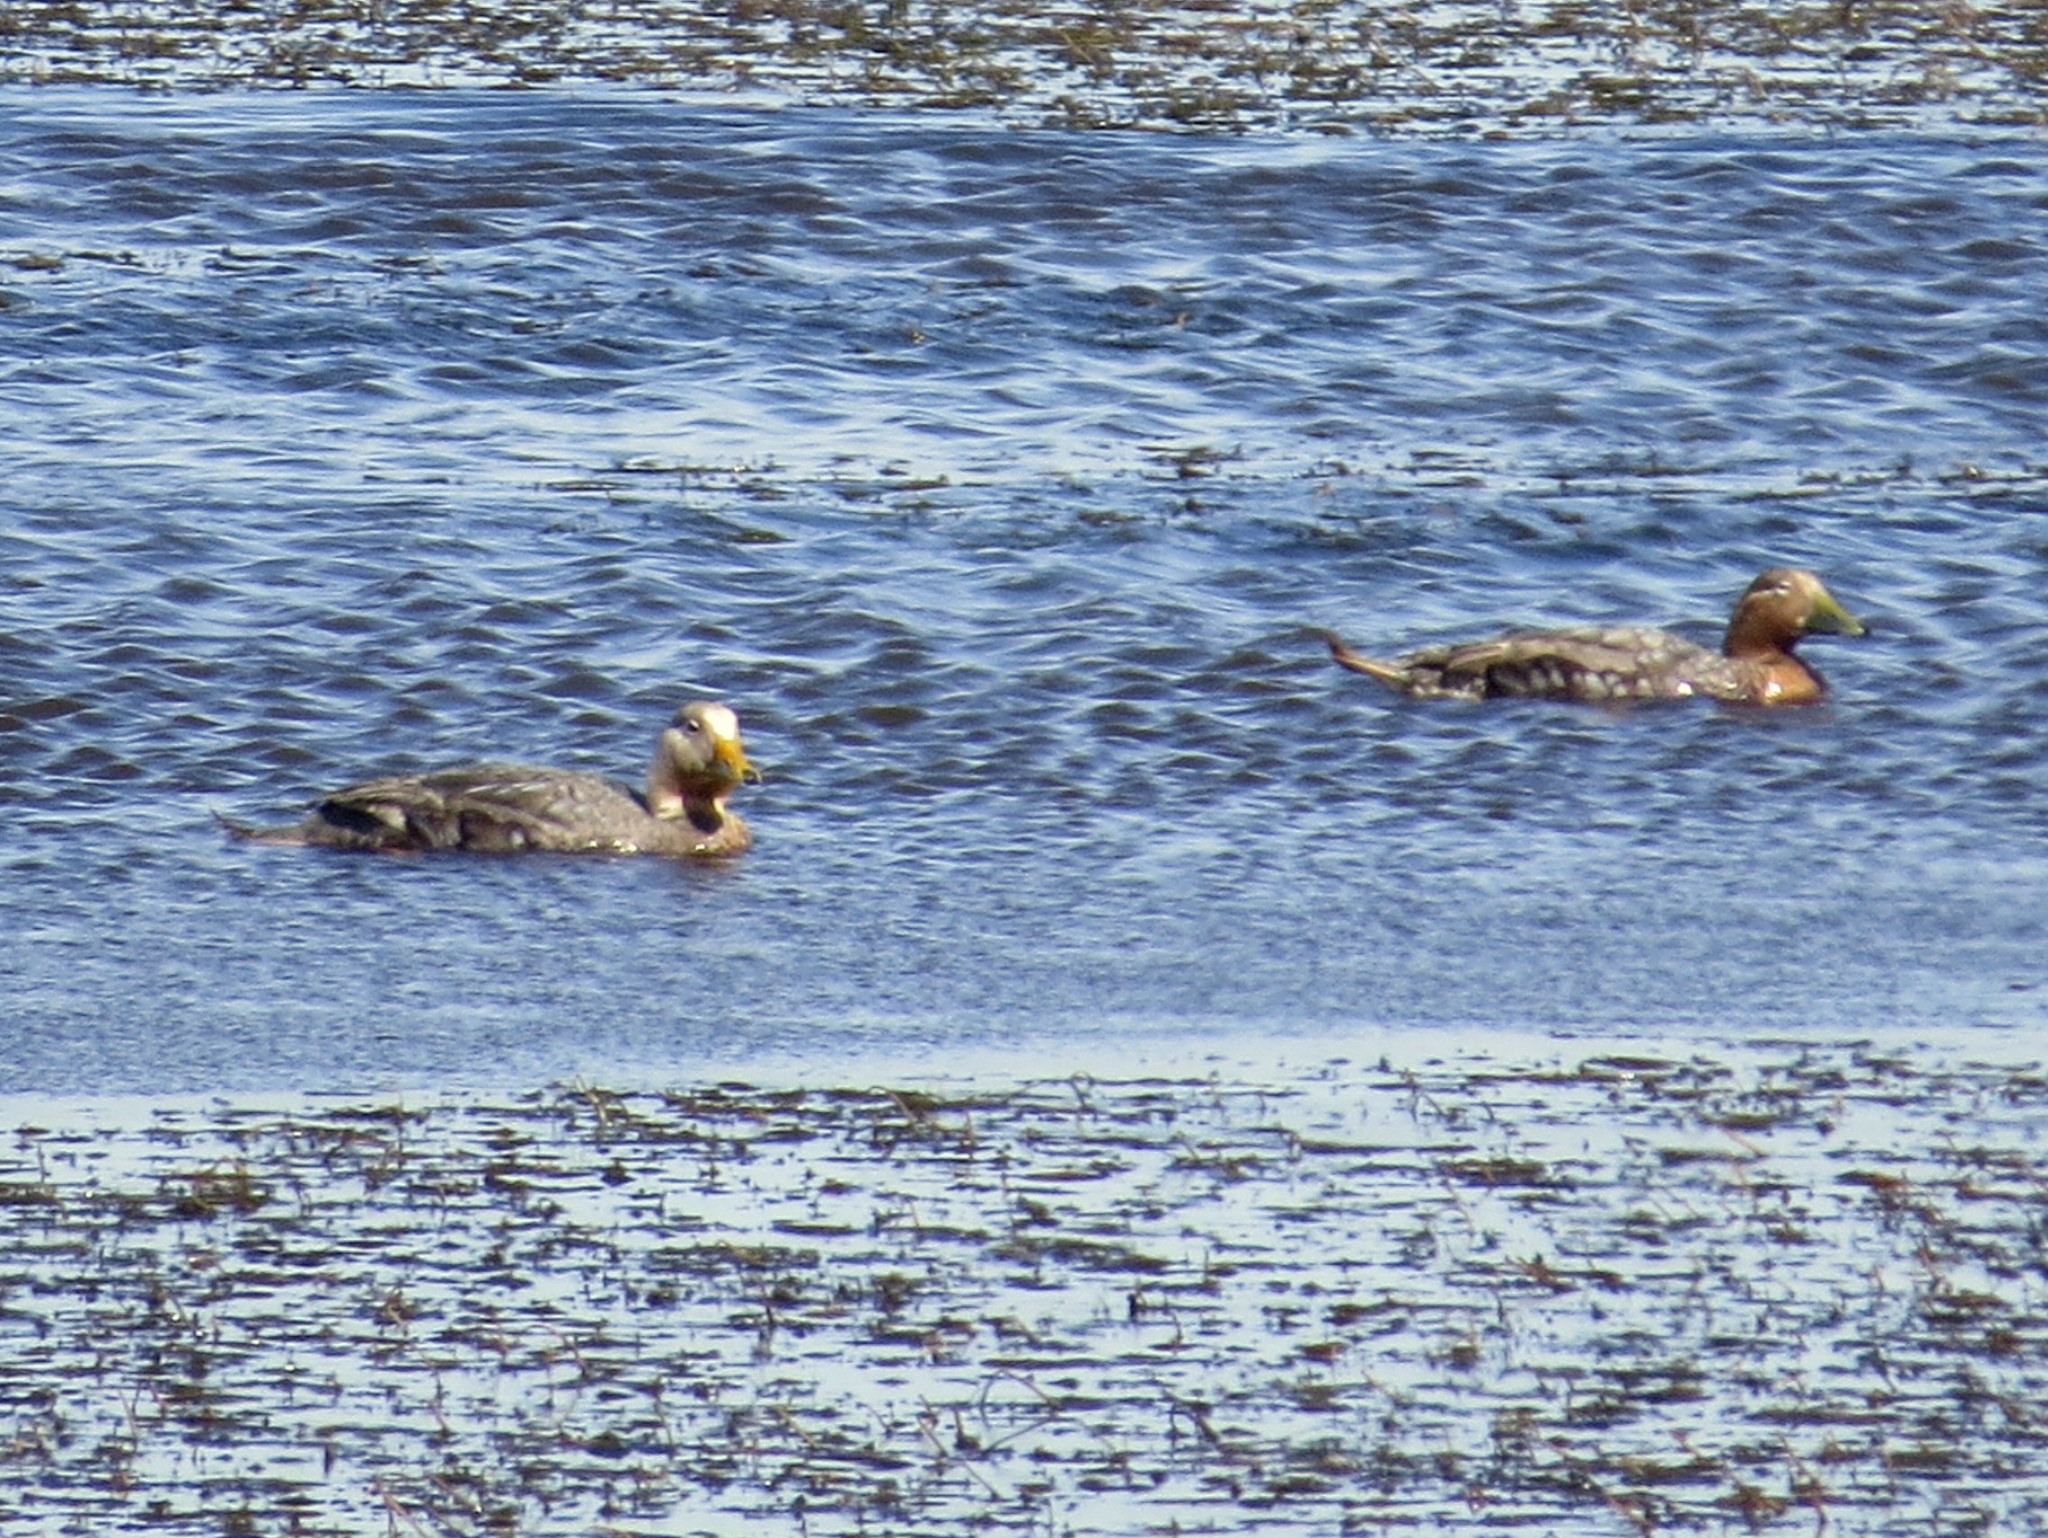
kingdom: Animalia
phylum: Chordata
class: Aves
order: Anseriformes
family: Anatidae
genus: Tachyeres
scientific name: Tachyeres patachonicus
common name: Flying steamer duck
